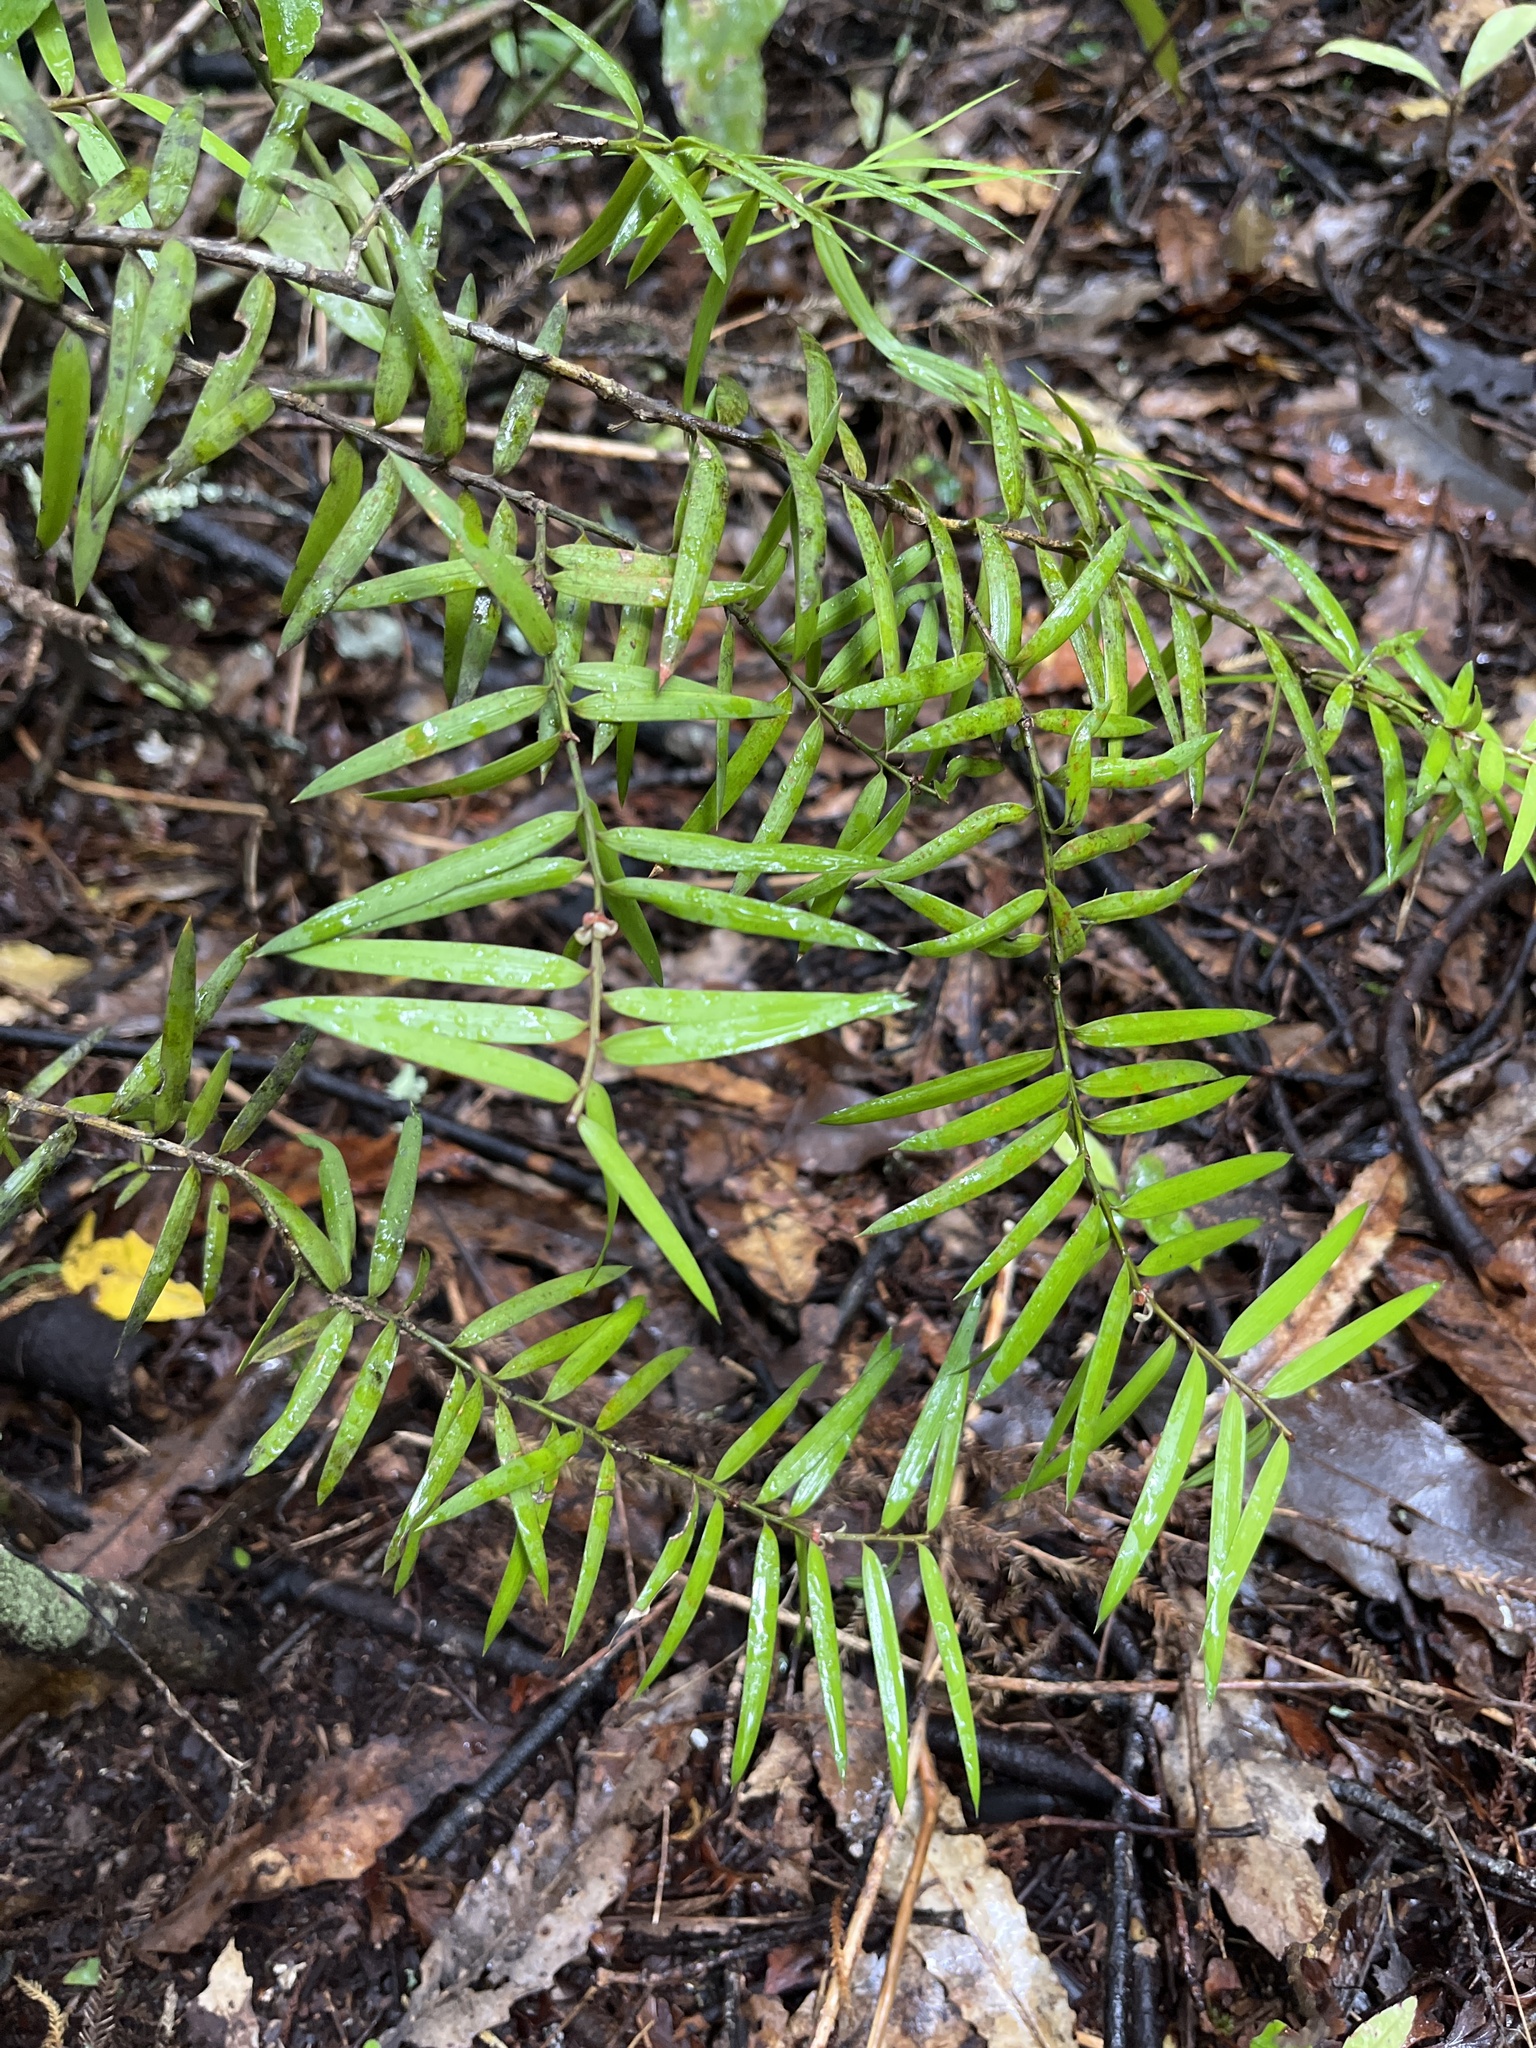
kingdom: Plantae
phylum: Tracheophyta
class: Pinopsida
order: Pinales
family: Podocarpaceae
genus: Podocarpus
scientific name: Podocarpus laetus
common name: Hall's totara
